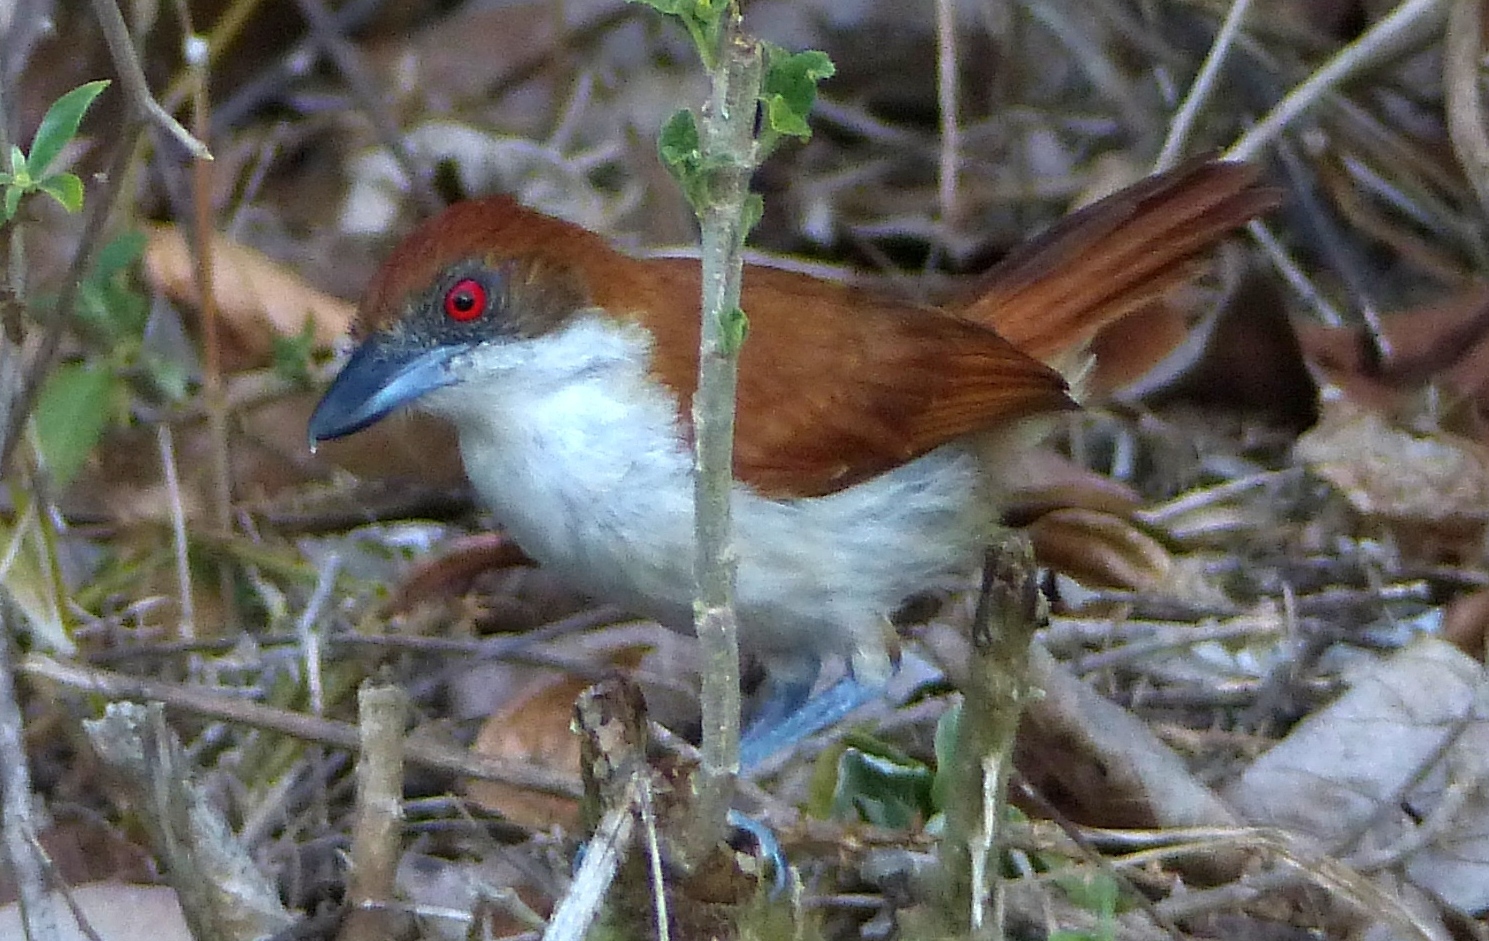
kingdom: Animalia
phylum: Chordata
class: Aves
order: Passeriformes
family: Thamnophilidae
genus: Taraba
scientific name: Taraba major
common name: Great antshrike
